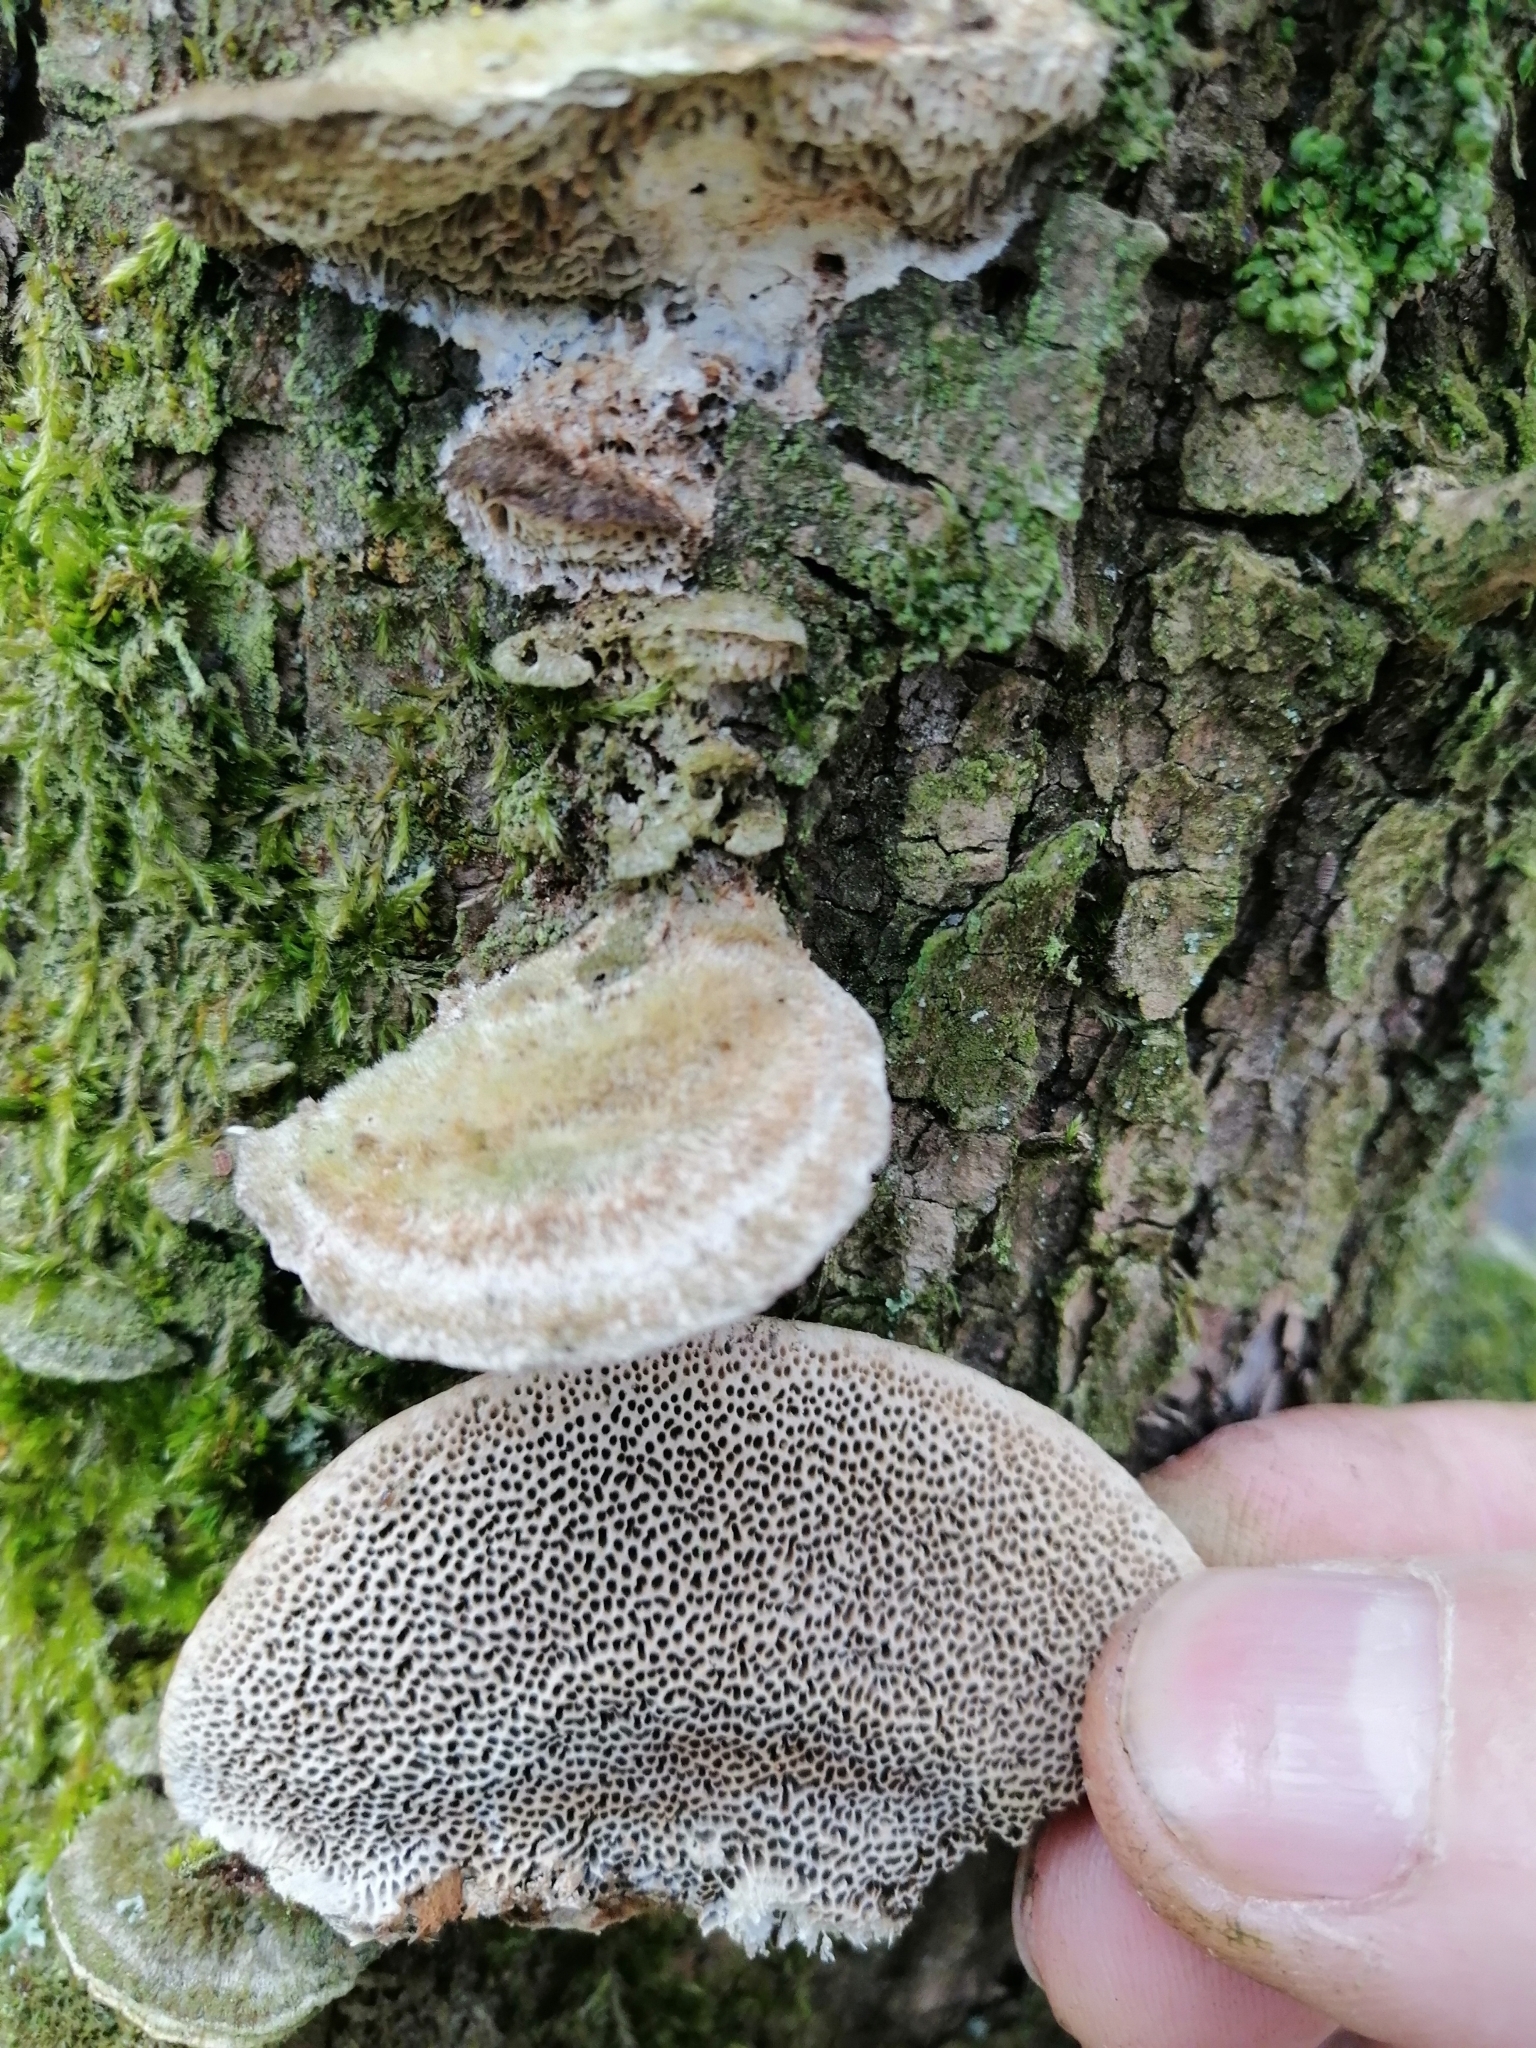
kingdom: Fungi
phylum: Basidiomycota
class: Agaricomycetes
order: Polyporales
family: Polyporaceae
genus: Trametes
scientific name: Trametes trogii
